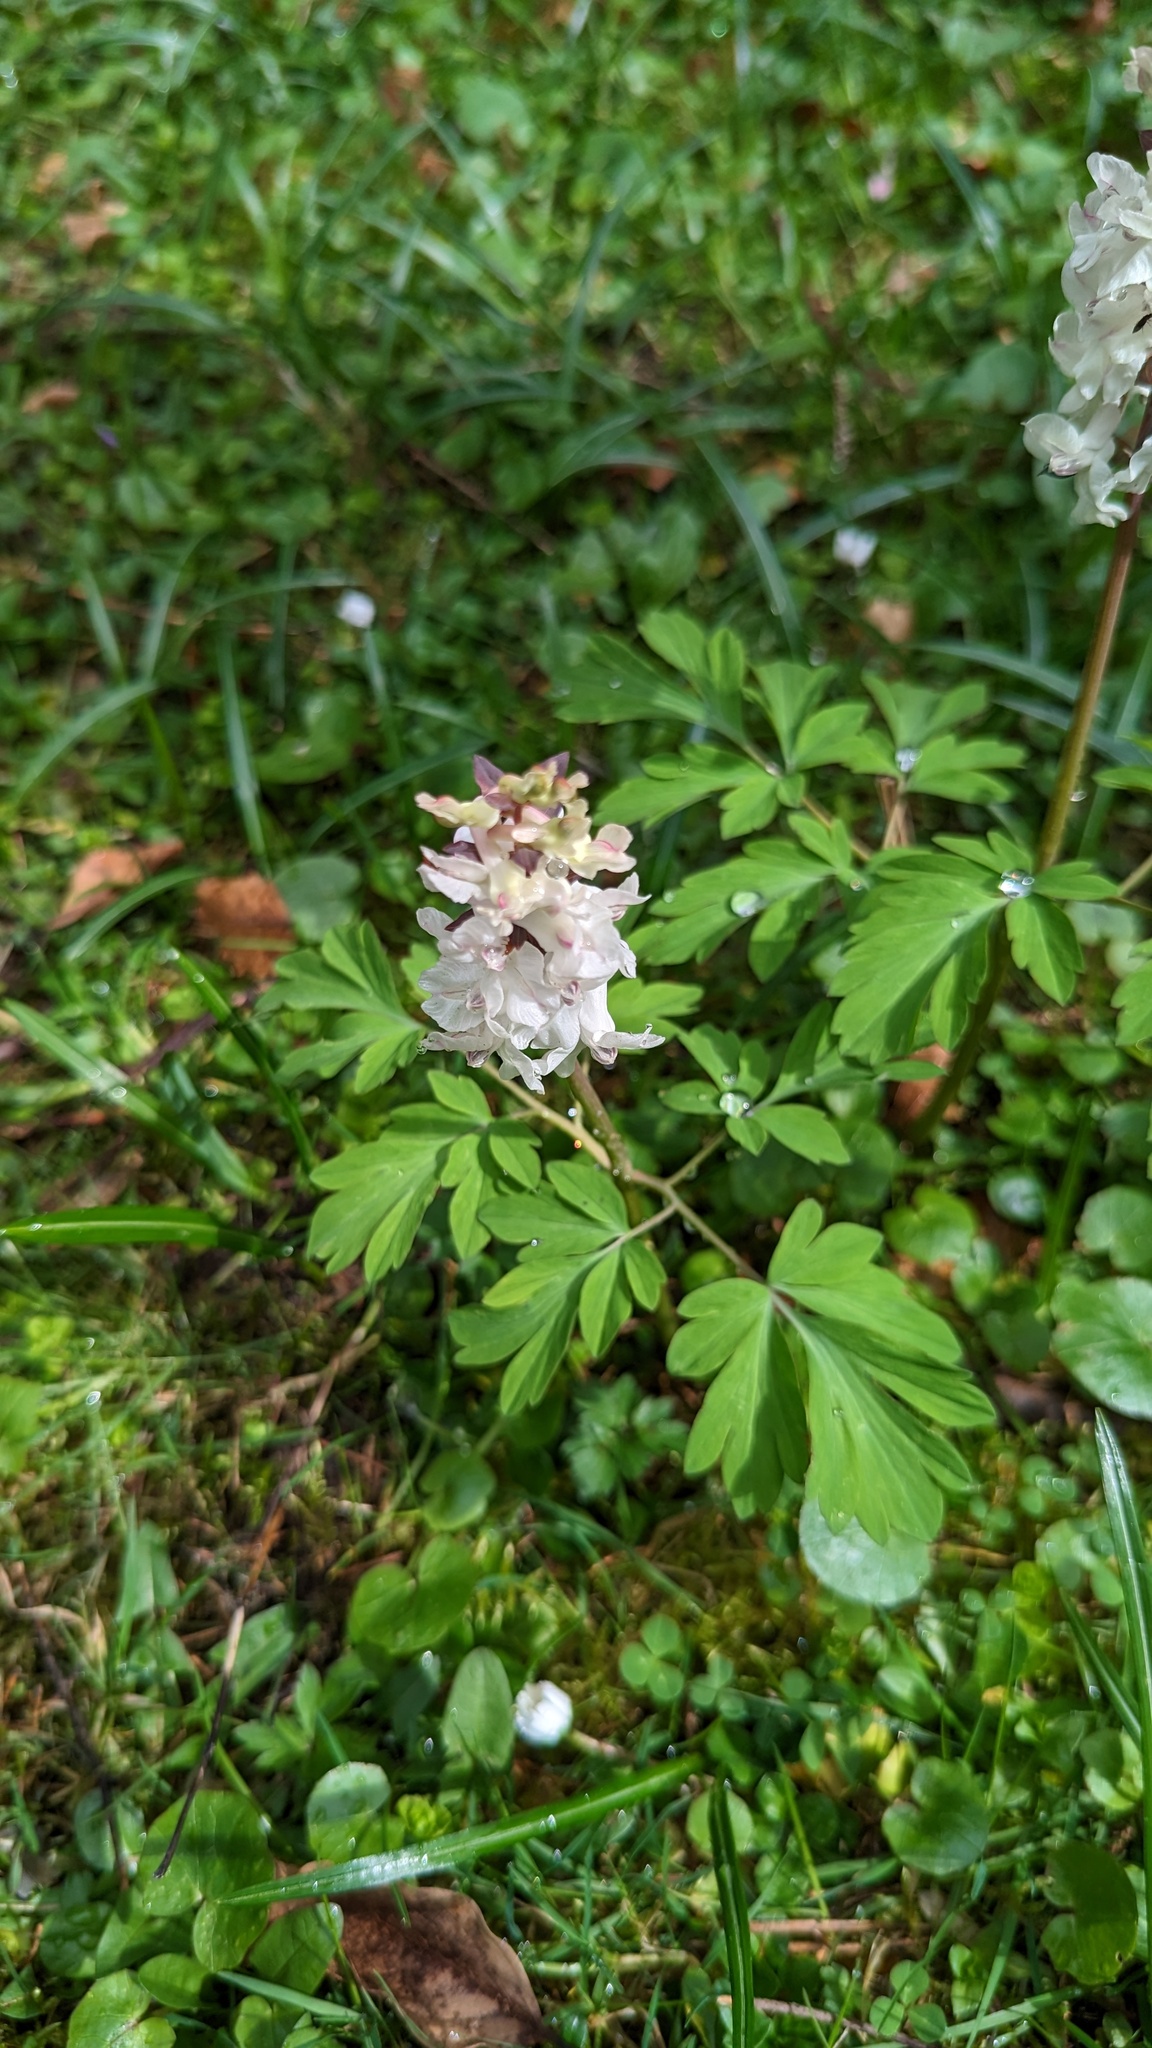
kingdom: Plantae
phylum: Tracheophyta
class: Magnoliopsida
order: Ranunculales
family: Papaveraceae
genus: Corydalis
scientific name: Corydalis cava
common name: Hollowroot
